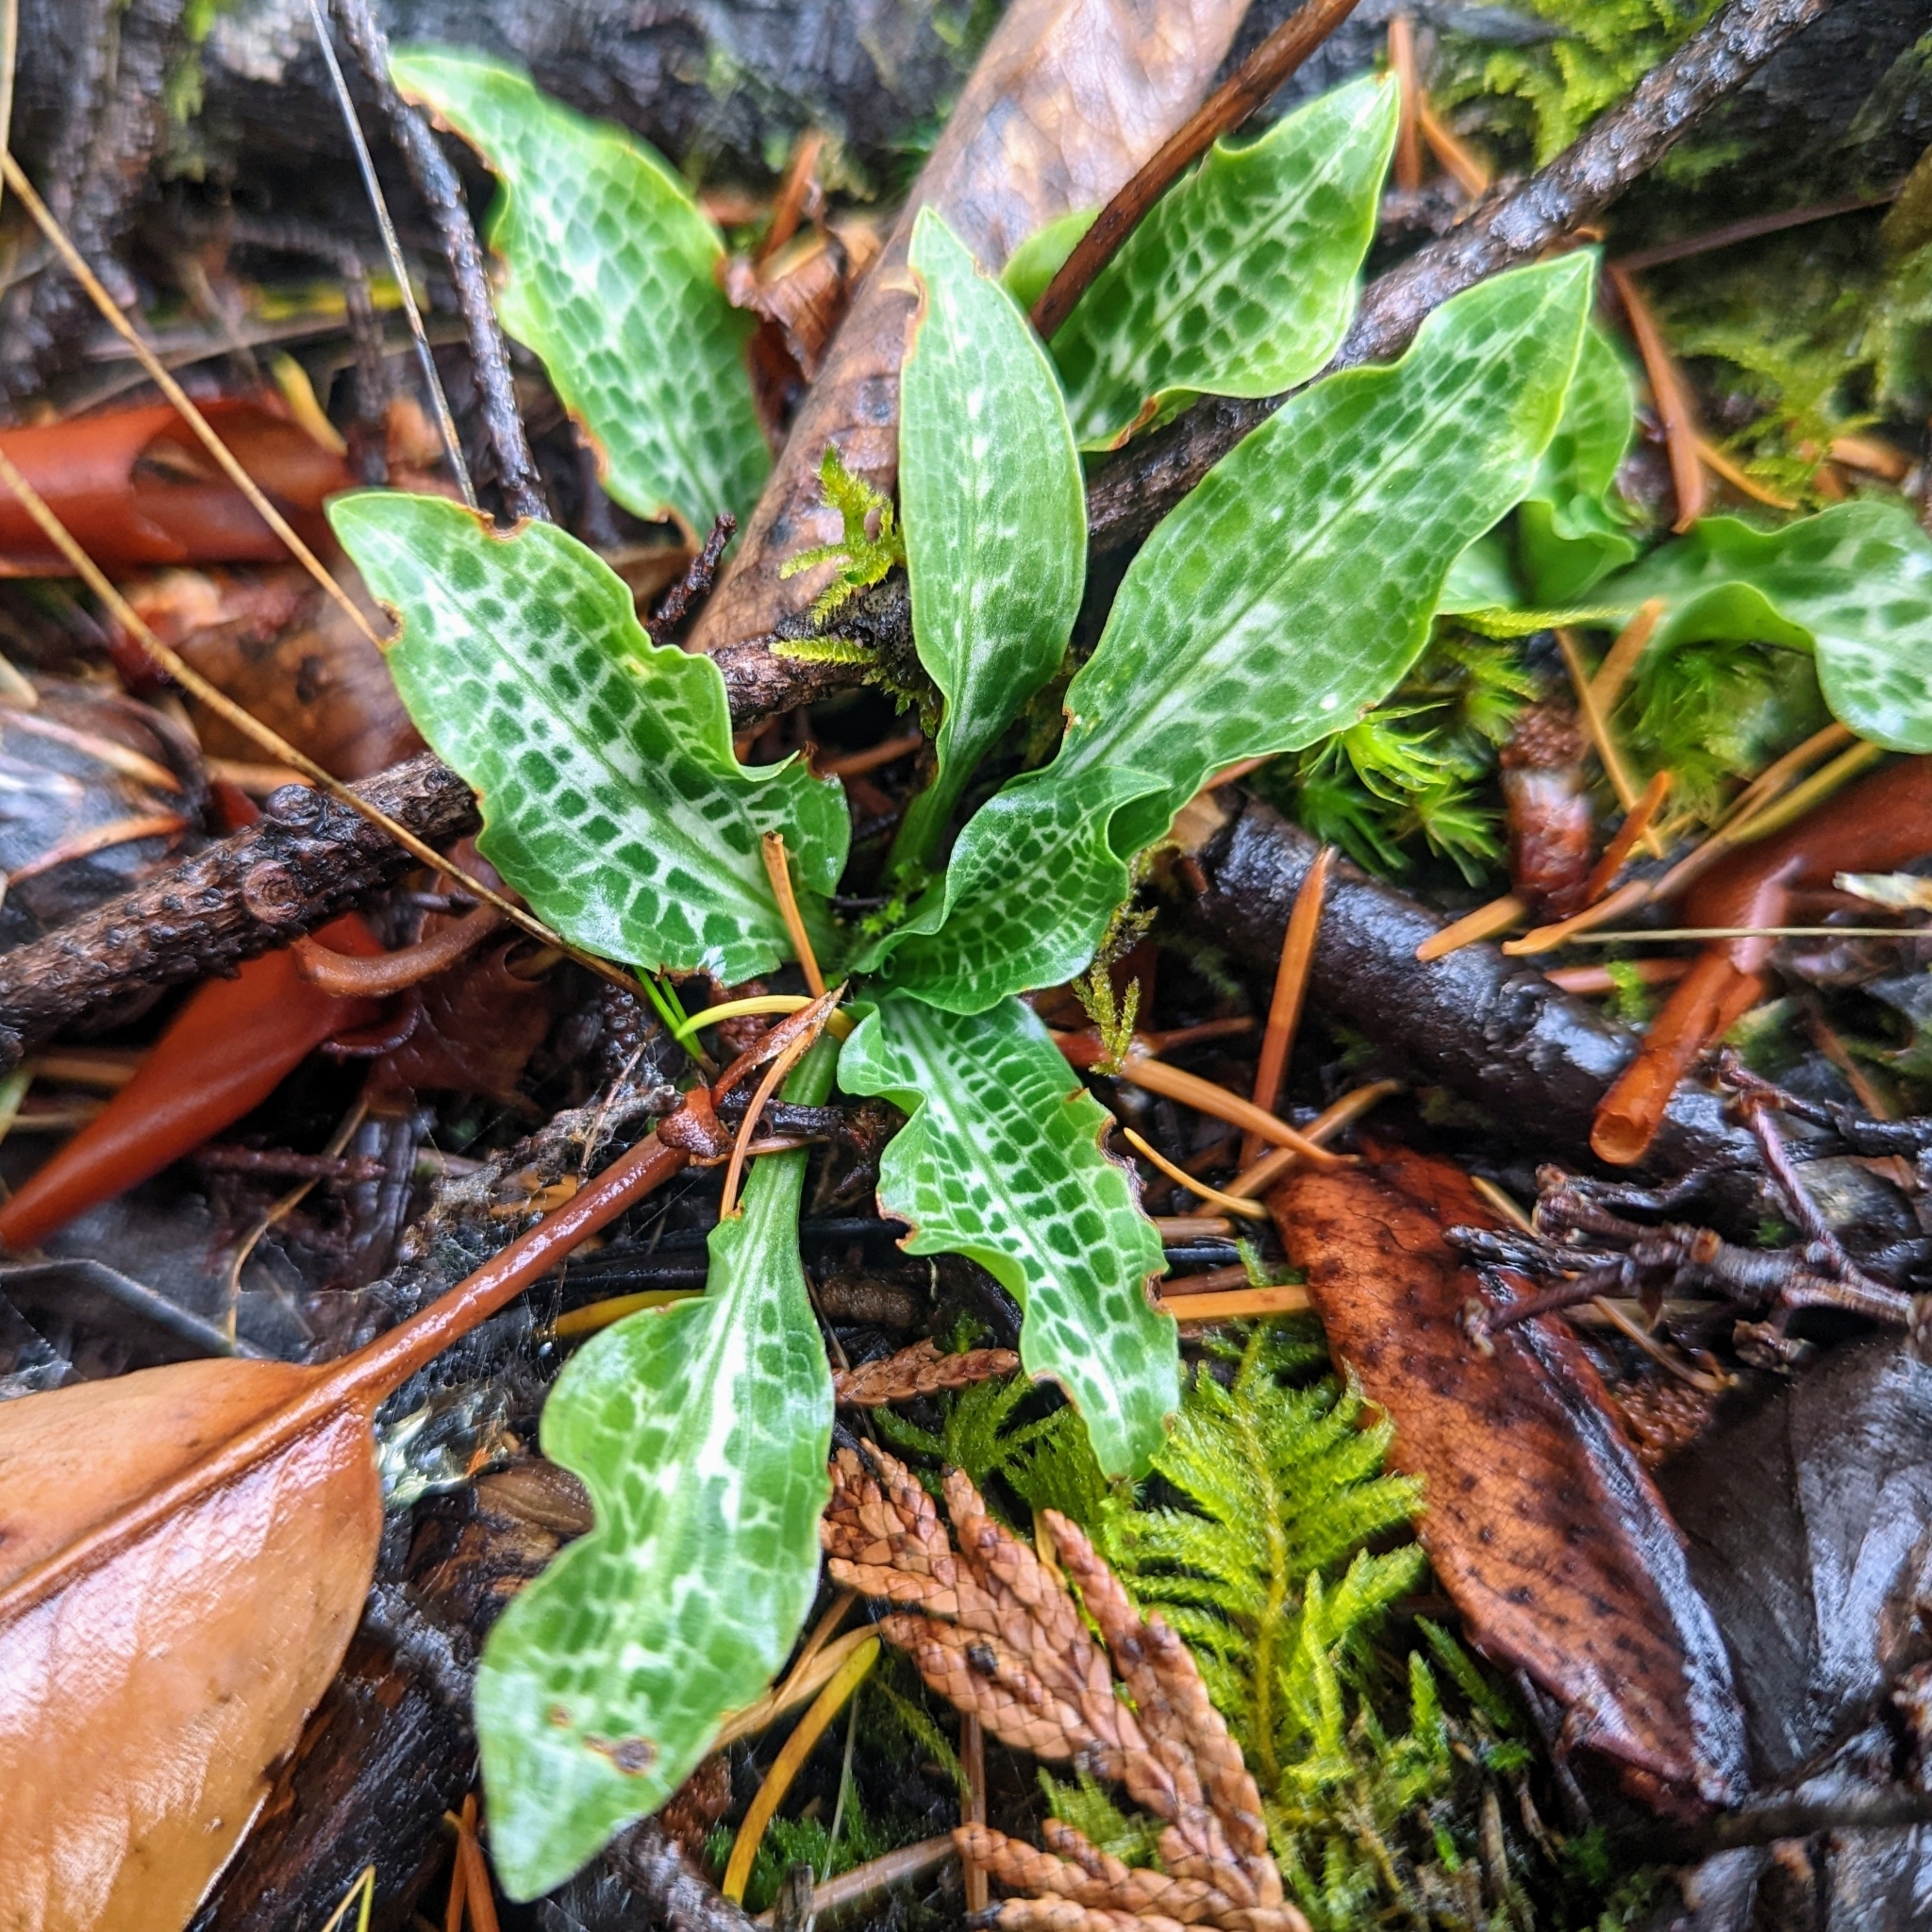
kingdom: Plantae
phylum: Tracheophyta
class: Liliopsida
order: Asparagales
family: Orchidaceae
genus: Goodyera
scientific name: Goodyera oblongifolia
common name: Giant rattlesnake-plantain
